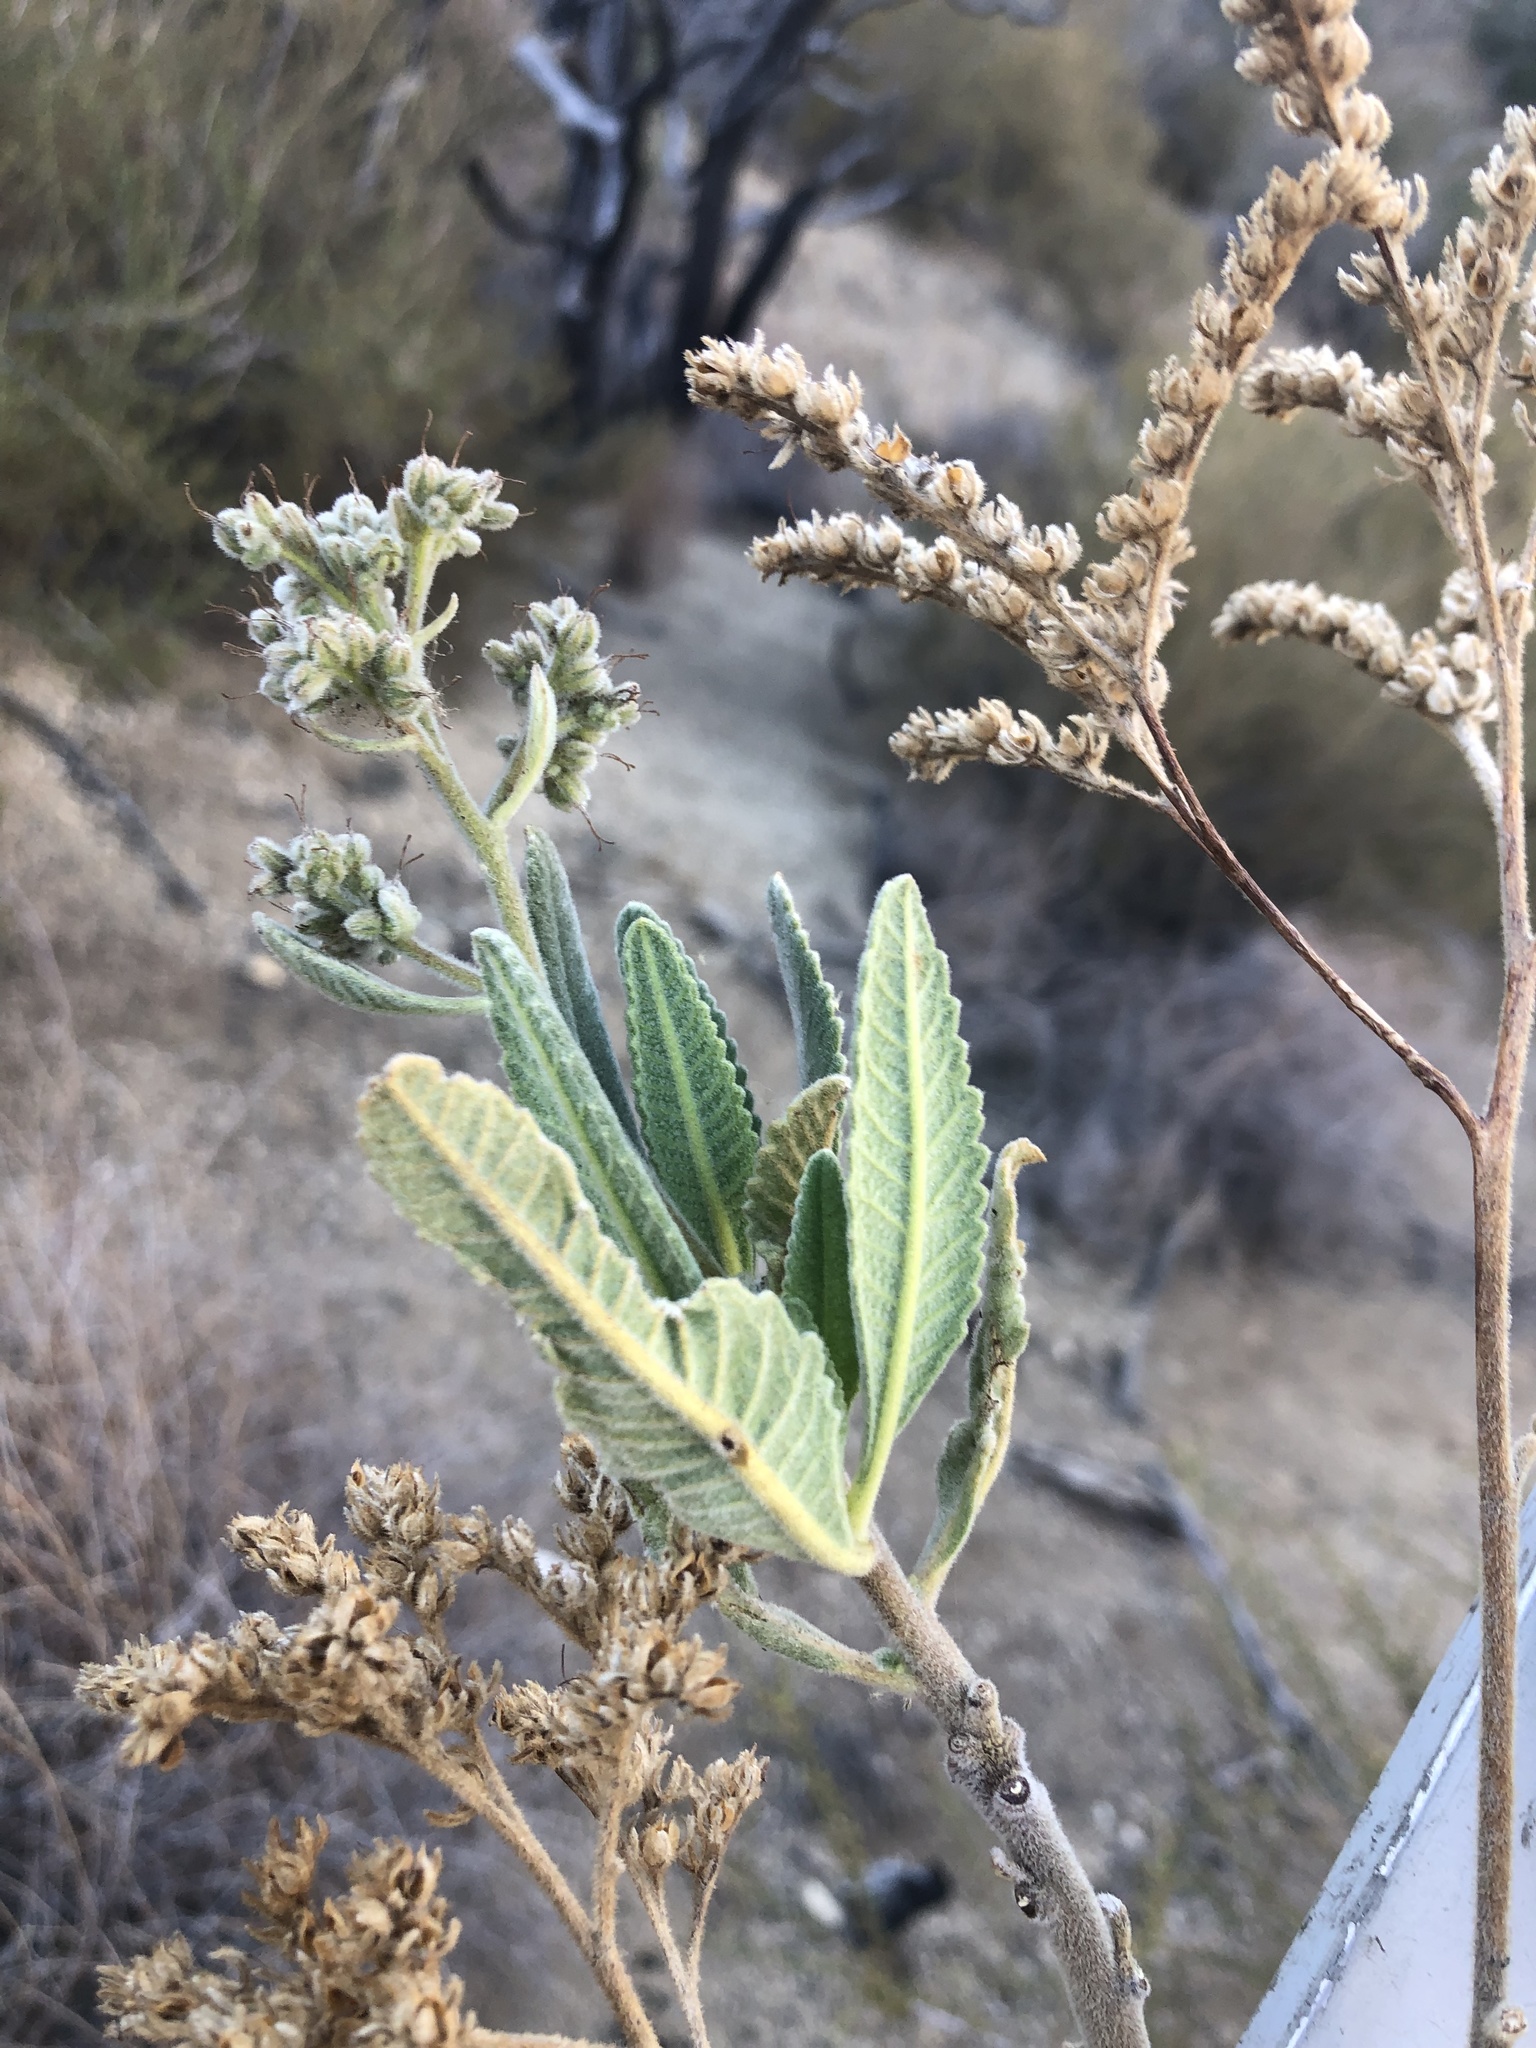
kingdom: Plantae
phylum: Tracheophyta
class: Magnoliopsida
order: Boraginales
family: Namaceae
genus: Eriodictyon
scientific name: Eriodictyon crassifolium
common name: Thick-leaf yerba-santa
